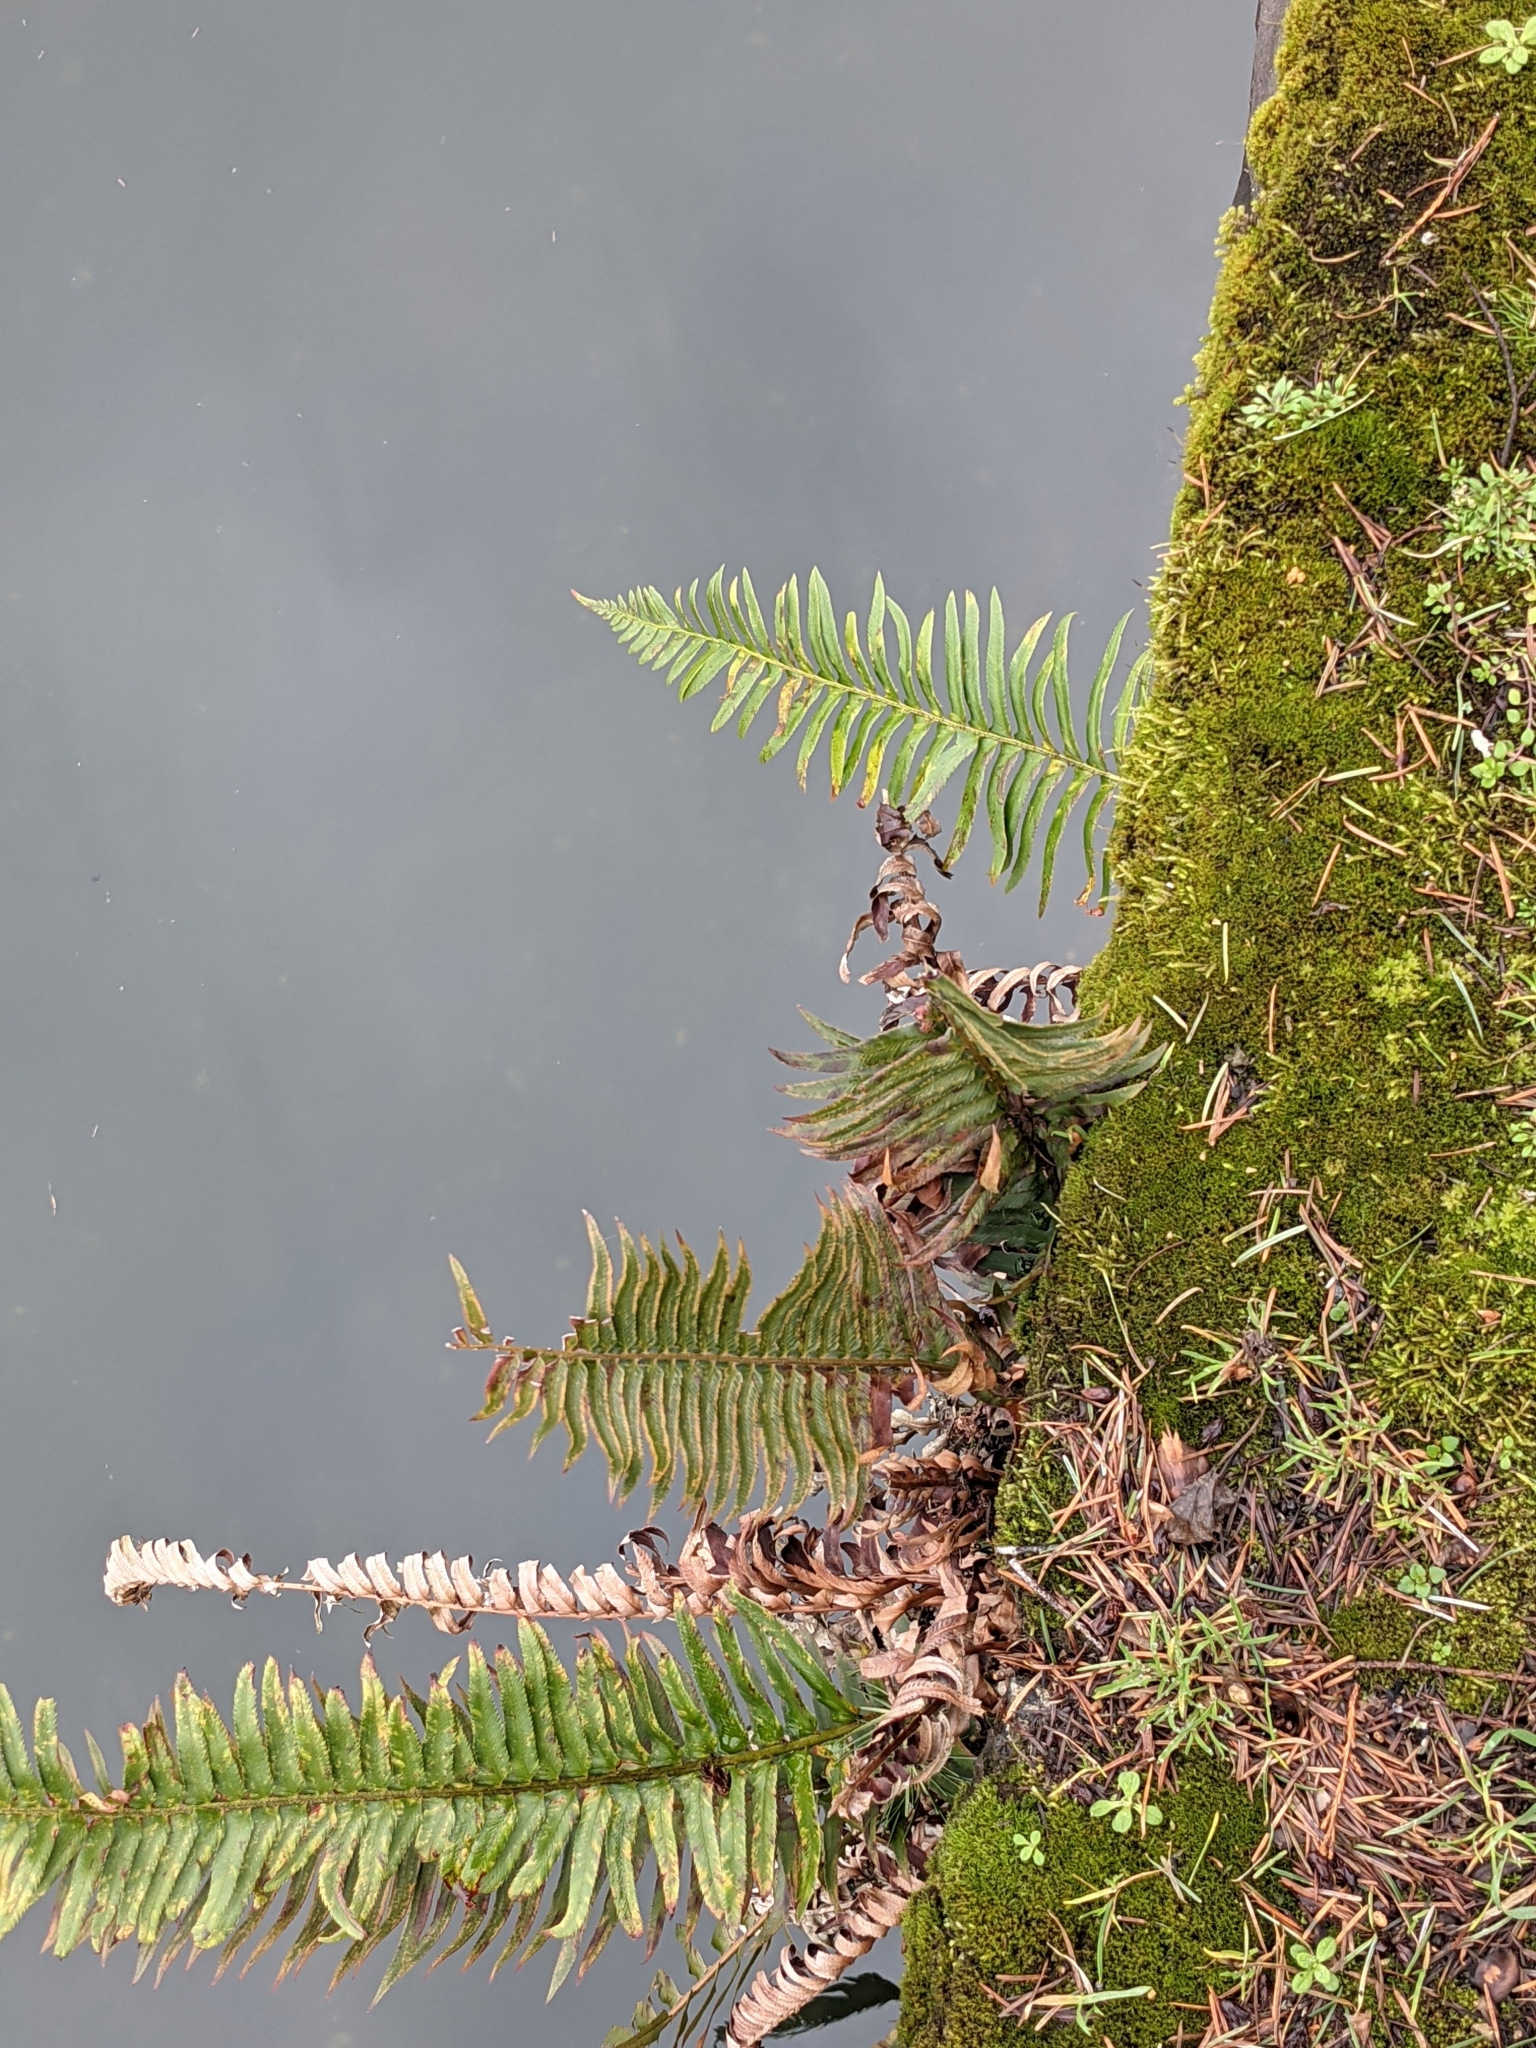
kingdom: Plantae
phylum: Tracheophyta
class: Polypodiopsida
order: Polypodiales
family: Dryopteridaceae
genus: Polystichum
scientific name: Polystichum munitum
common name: Western sword-fern
